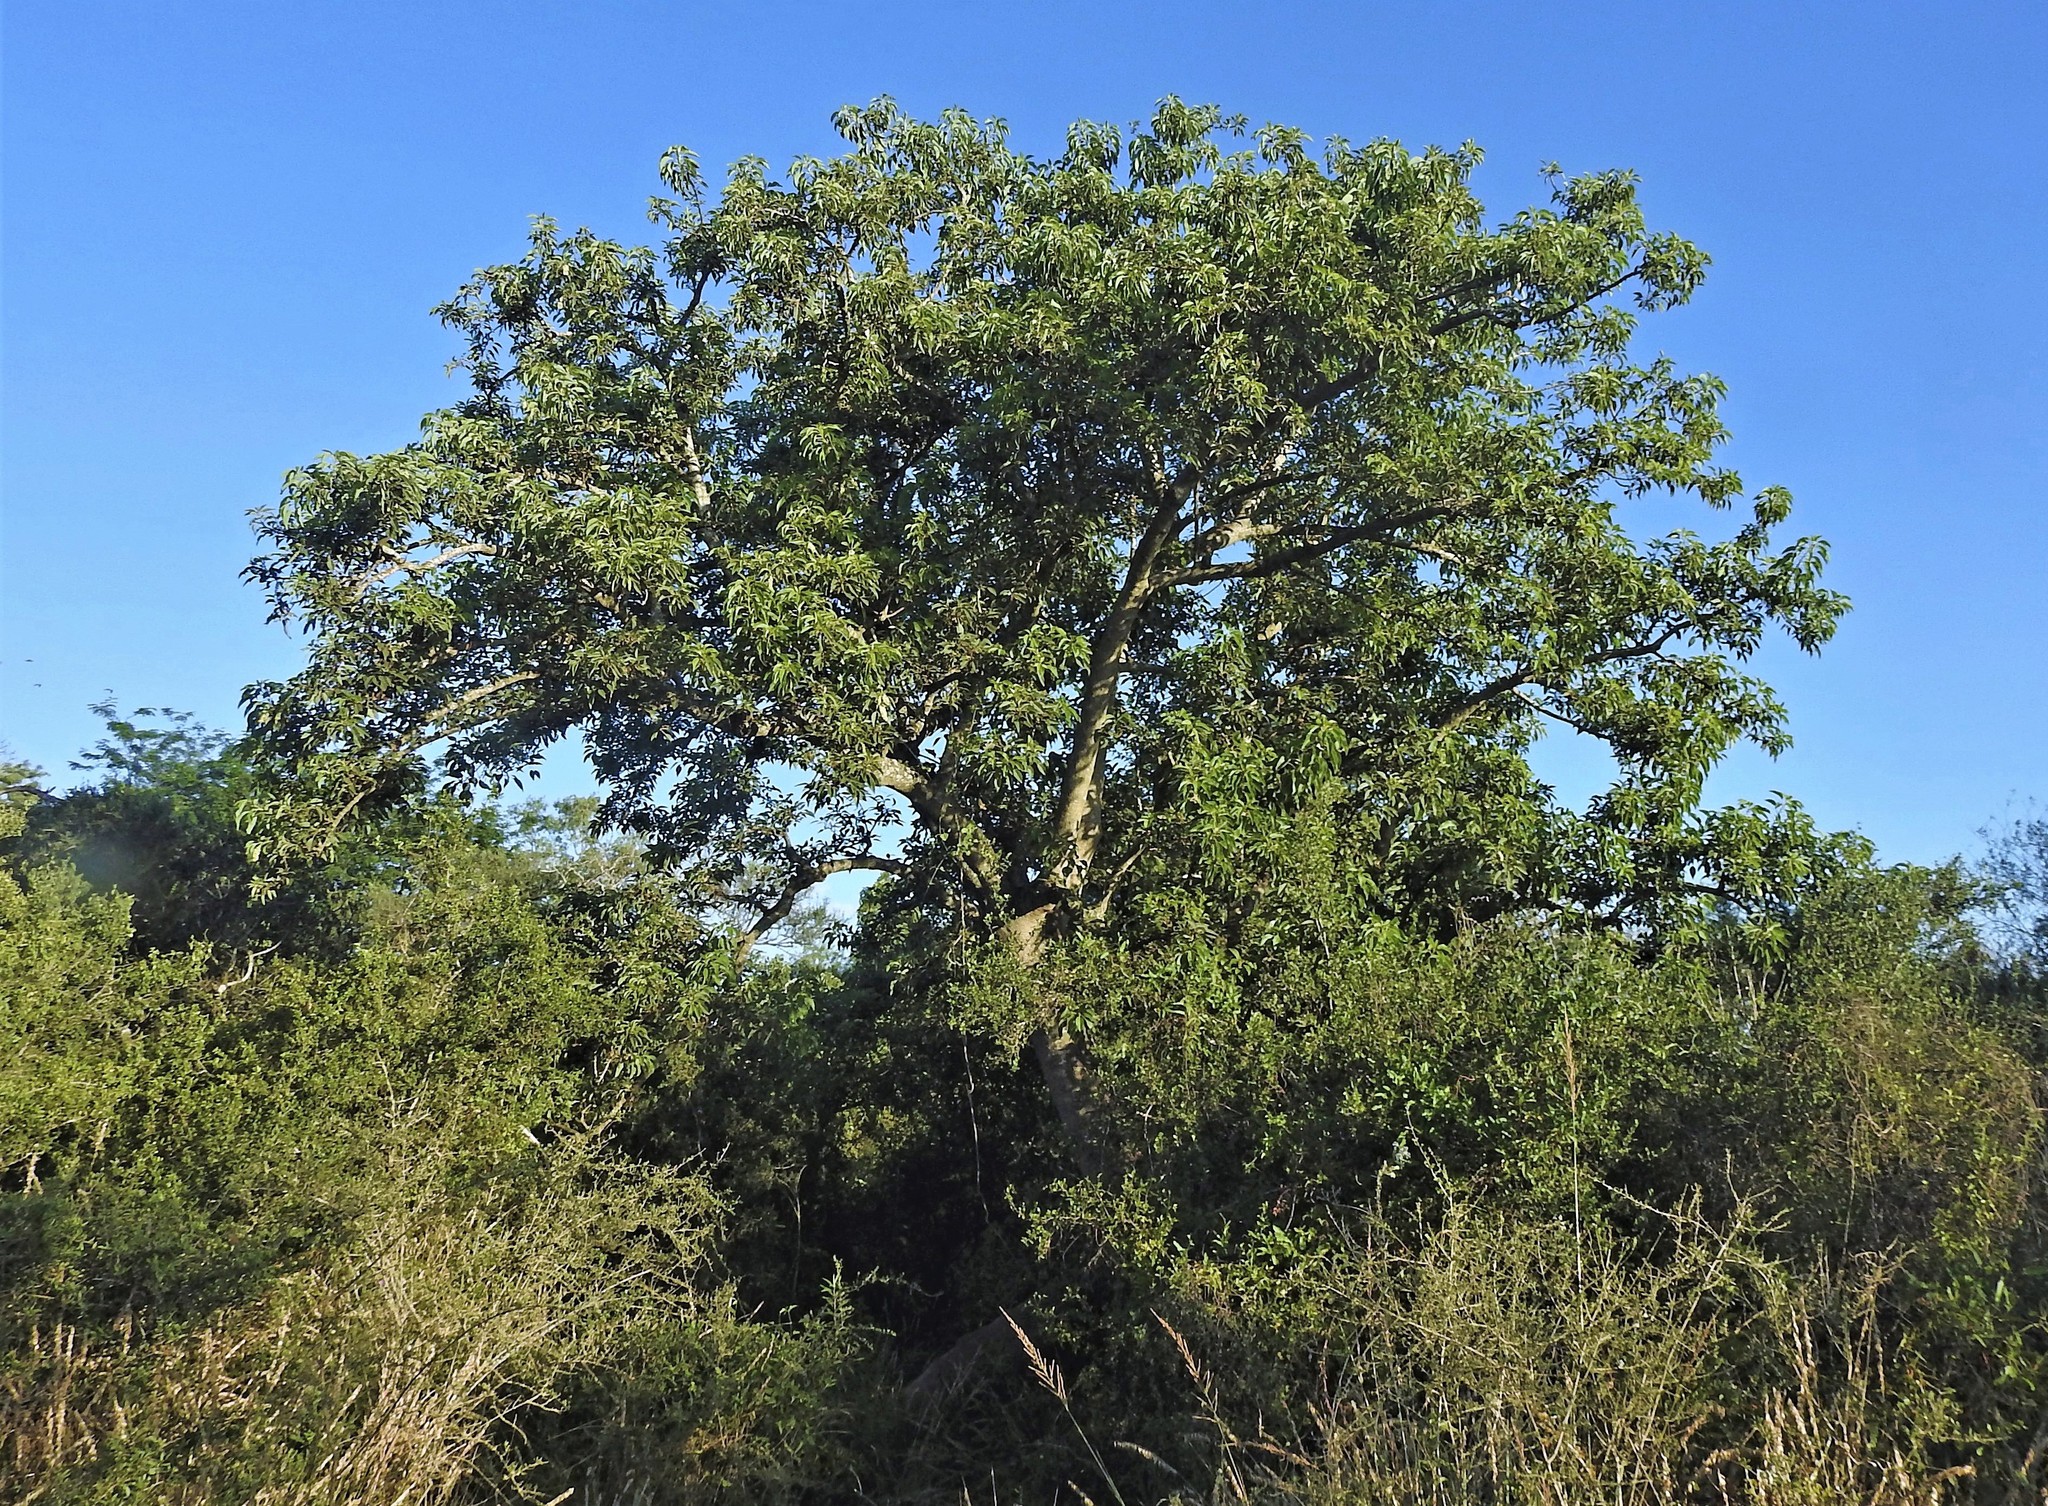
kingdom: Plantae
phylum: Tracheophyta
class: Magnoliopsida
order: Caryophyllales
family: Phytolaccaceae
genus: Phytolacca
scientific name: Phytolacca dioica
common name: Pokeweed
